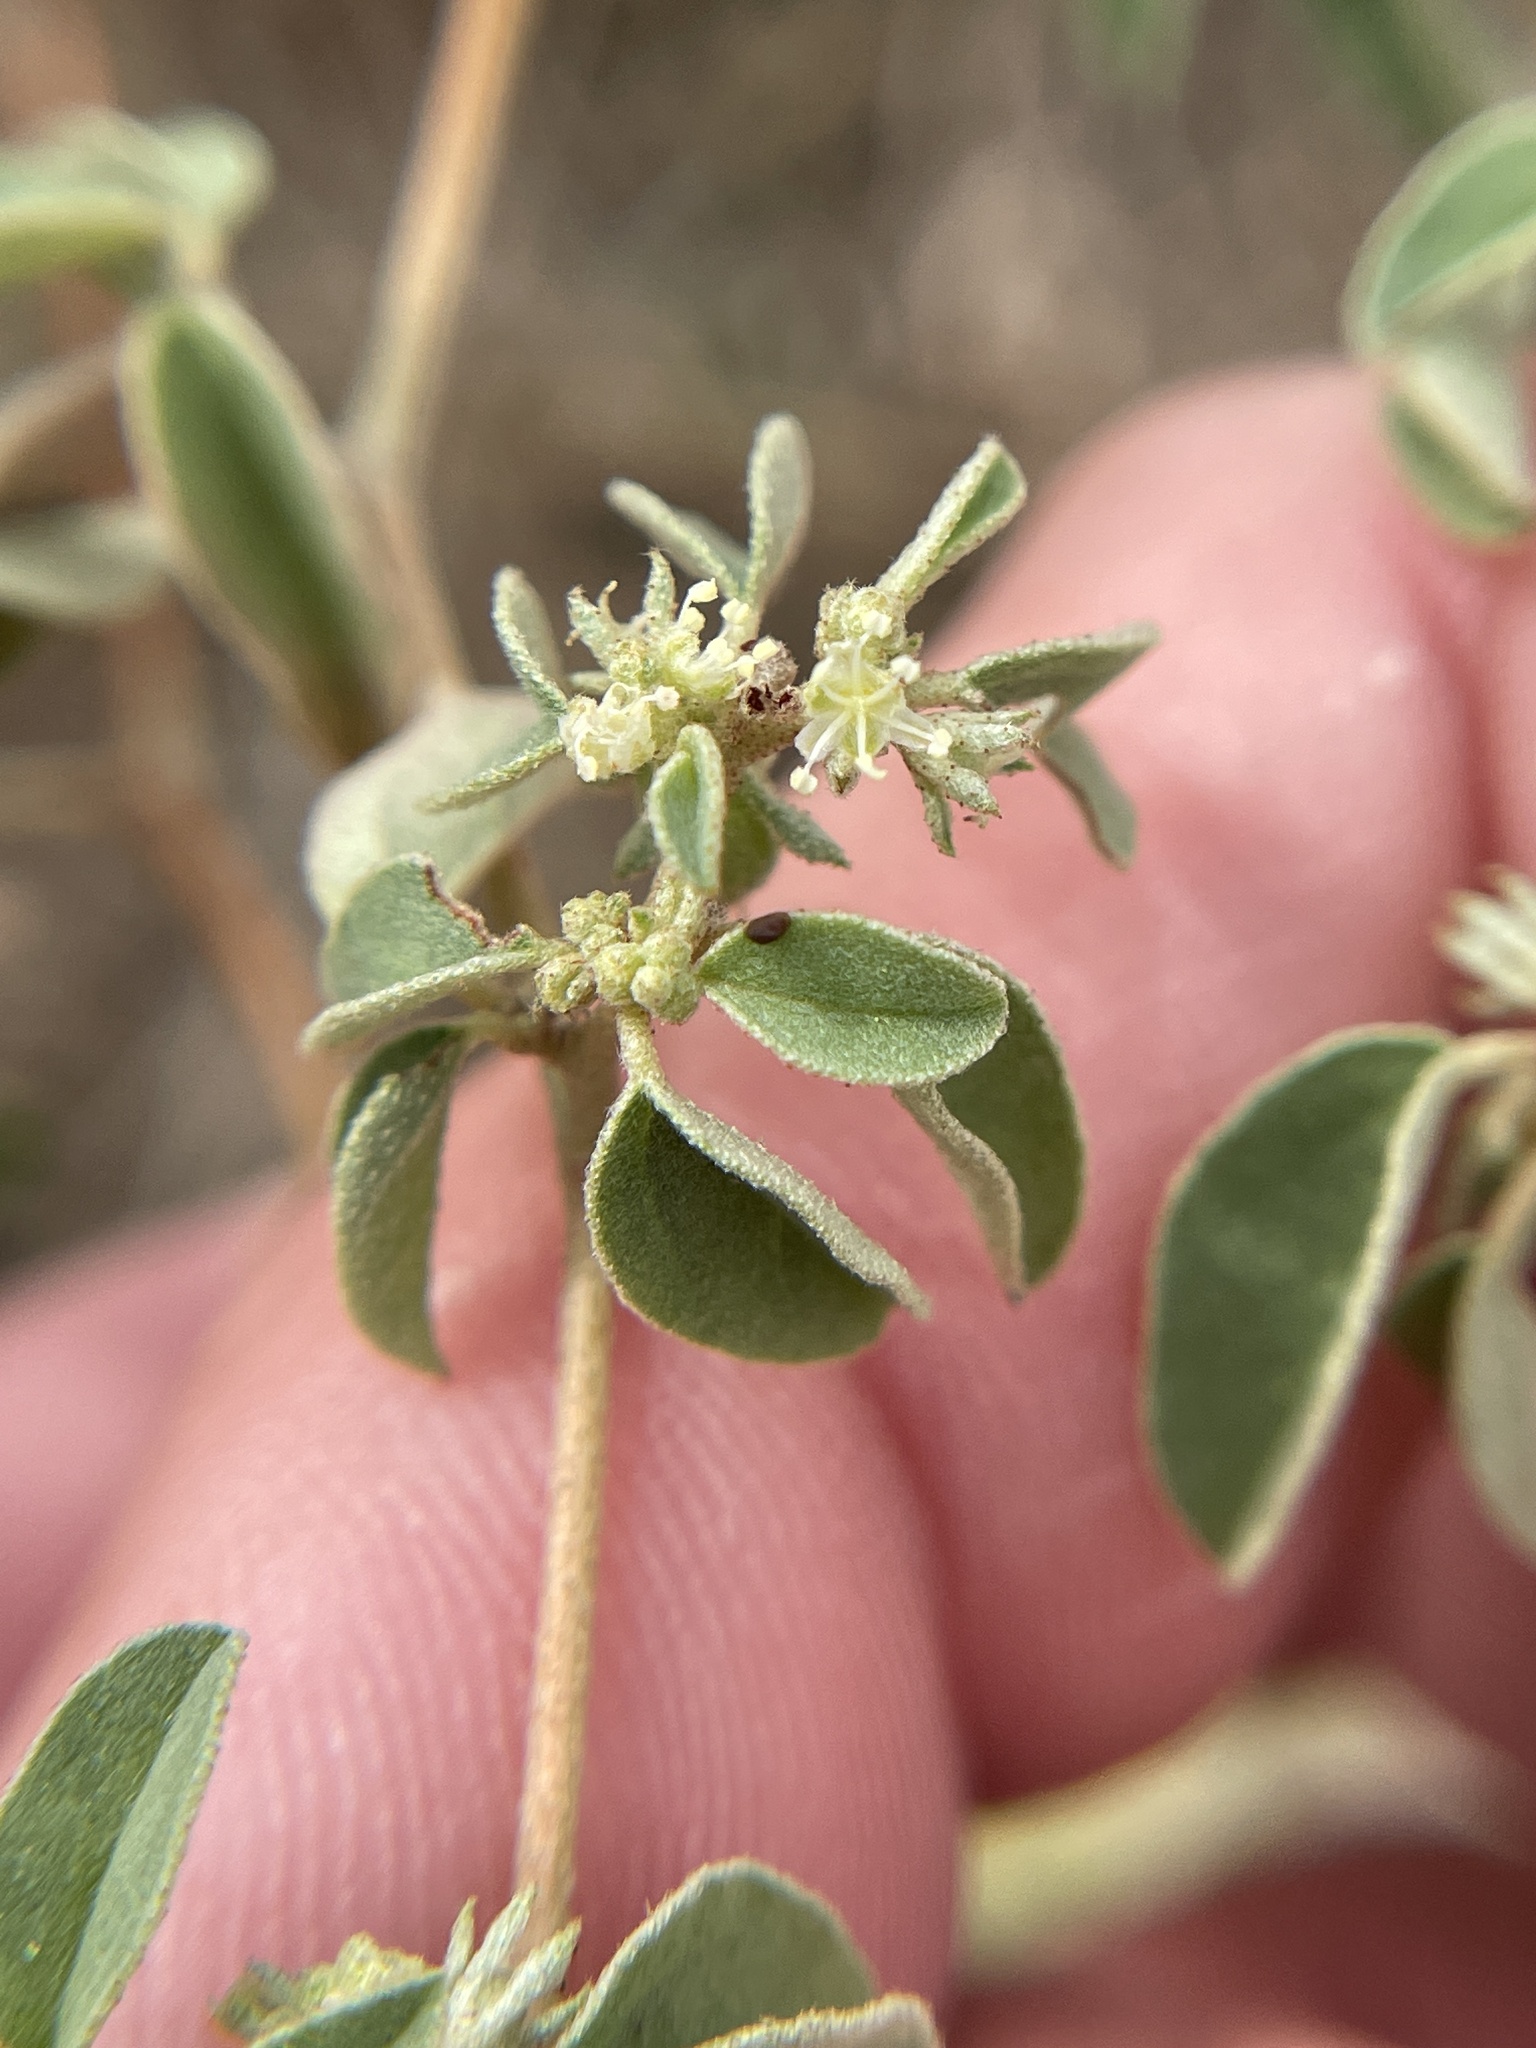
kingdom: Plantae
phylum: Tracheophyta
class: Magnoliopsida
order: Malpighiales
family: Euphorbiaceae
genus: Croton
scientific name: Croton monanthogynus
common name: One-seed croton
